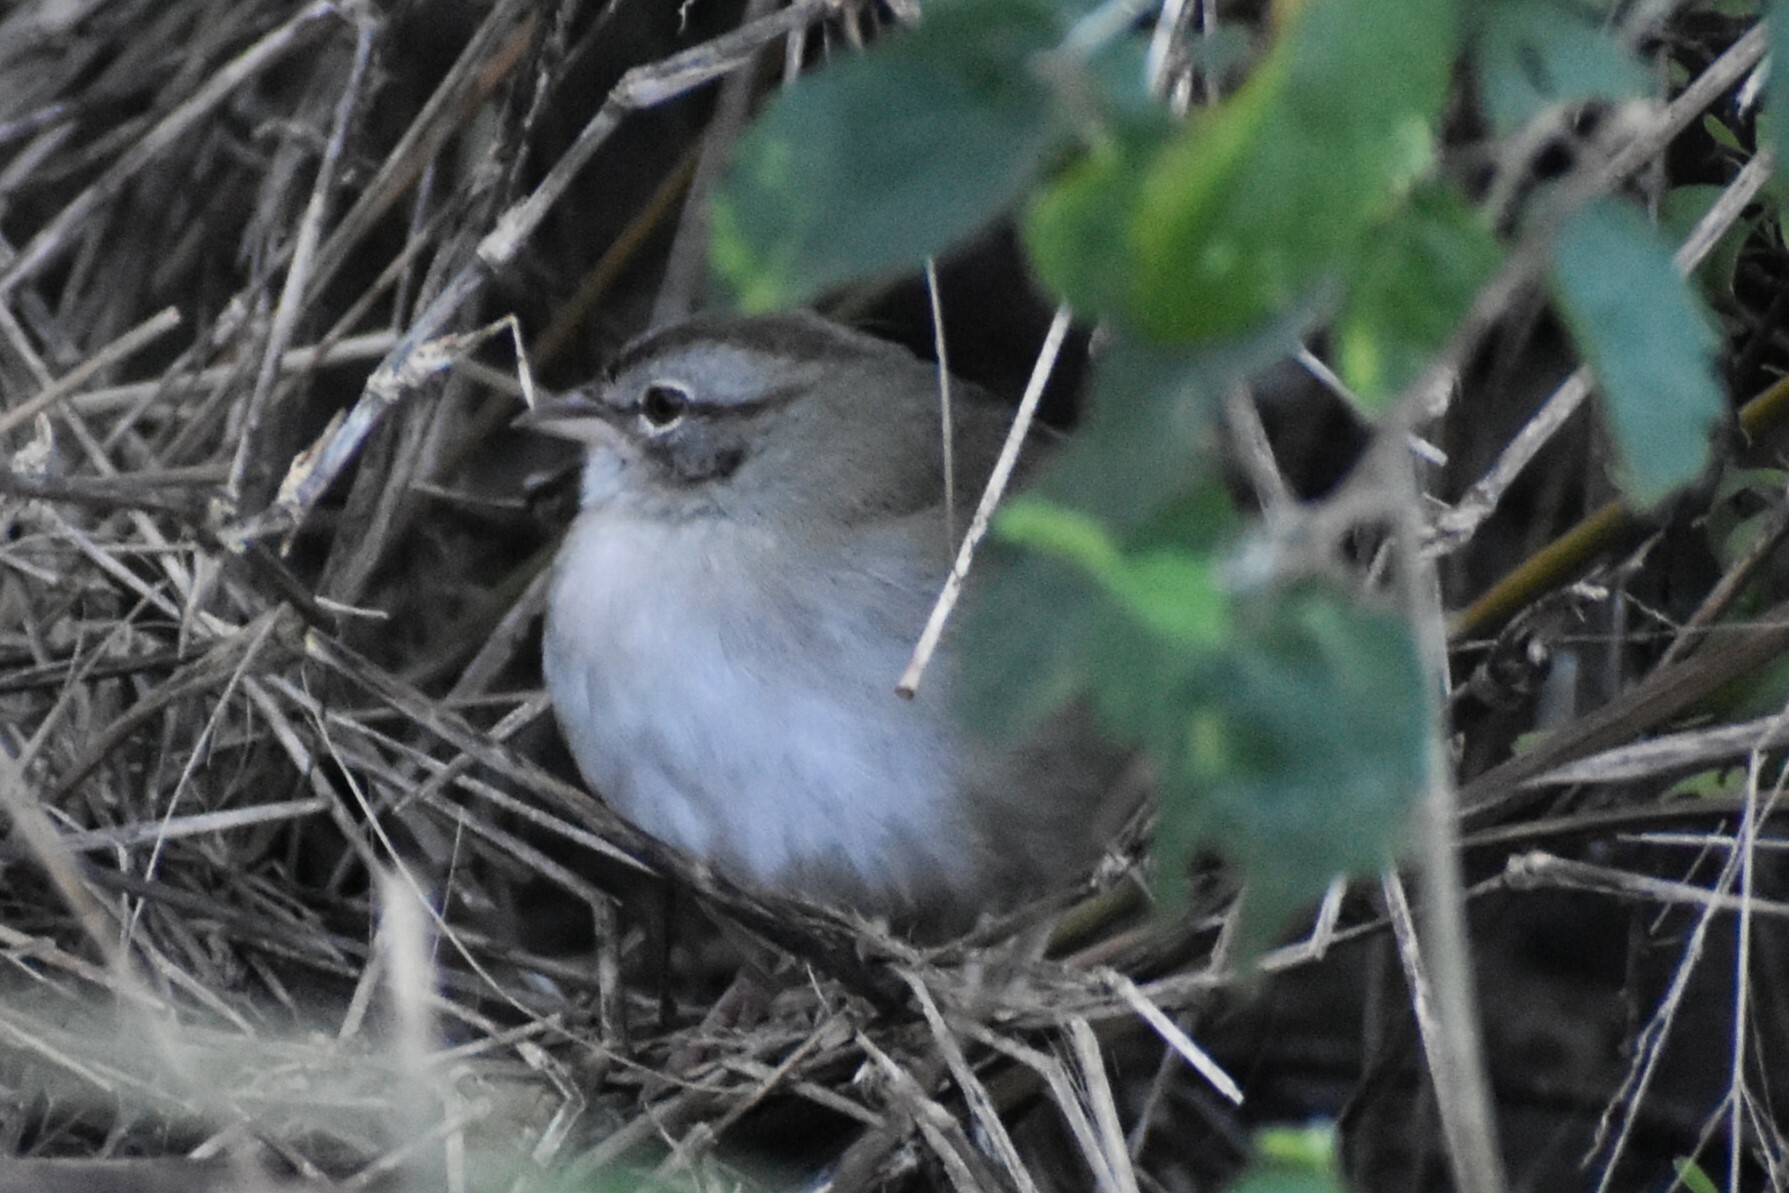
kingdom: Animalia
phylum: Chordata
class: Aves
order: Passeriformes
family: Passerellidae
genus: Arremonops
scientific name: Arremonops rufivirgatus
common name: Olive sparrow
